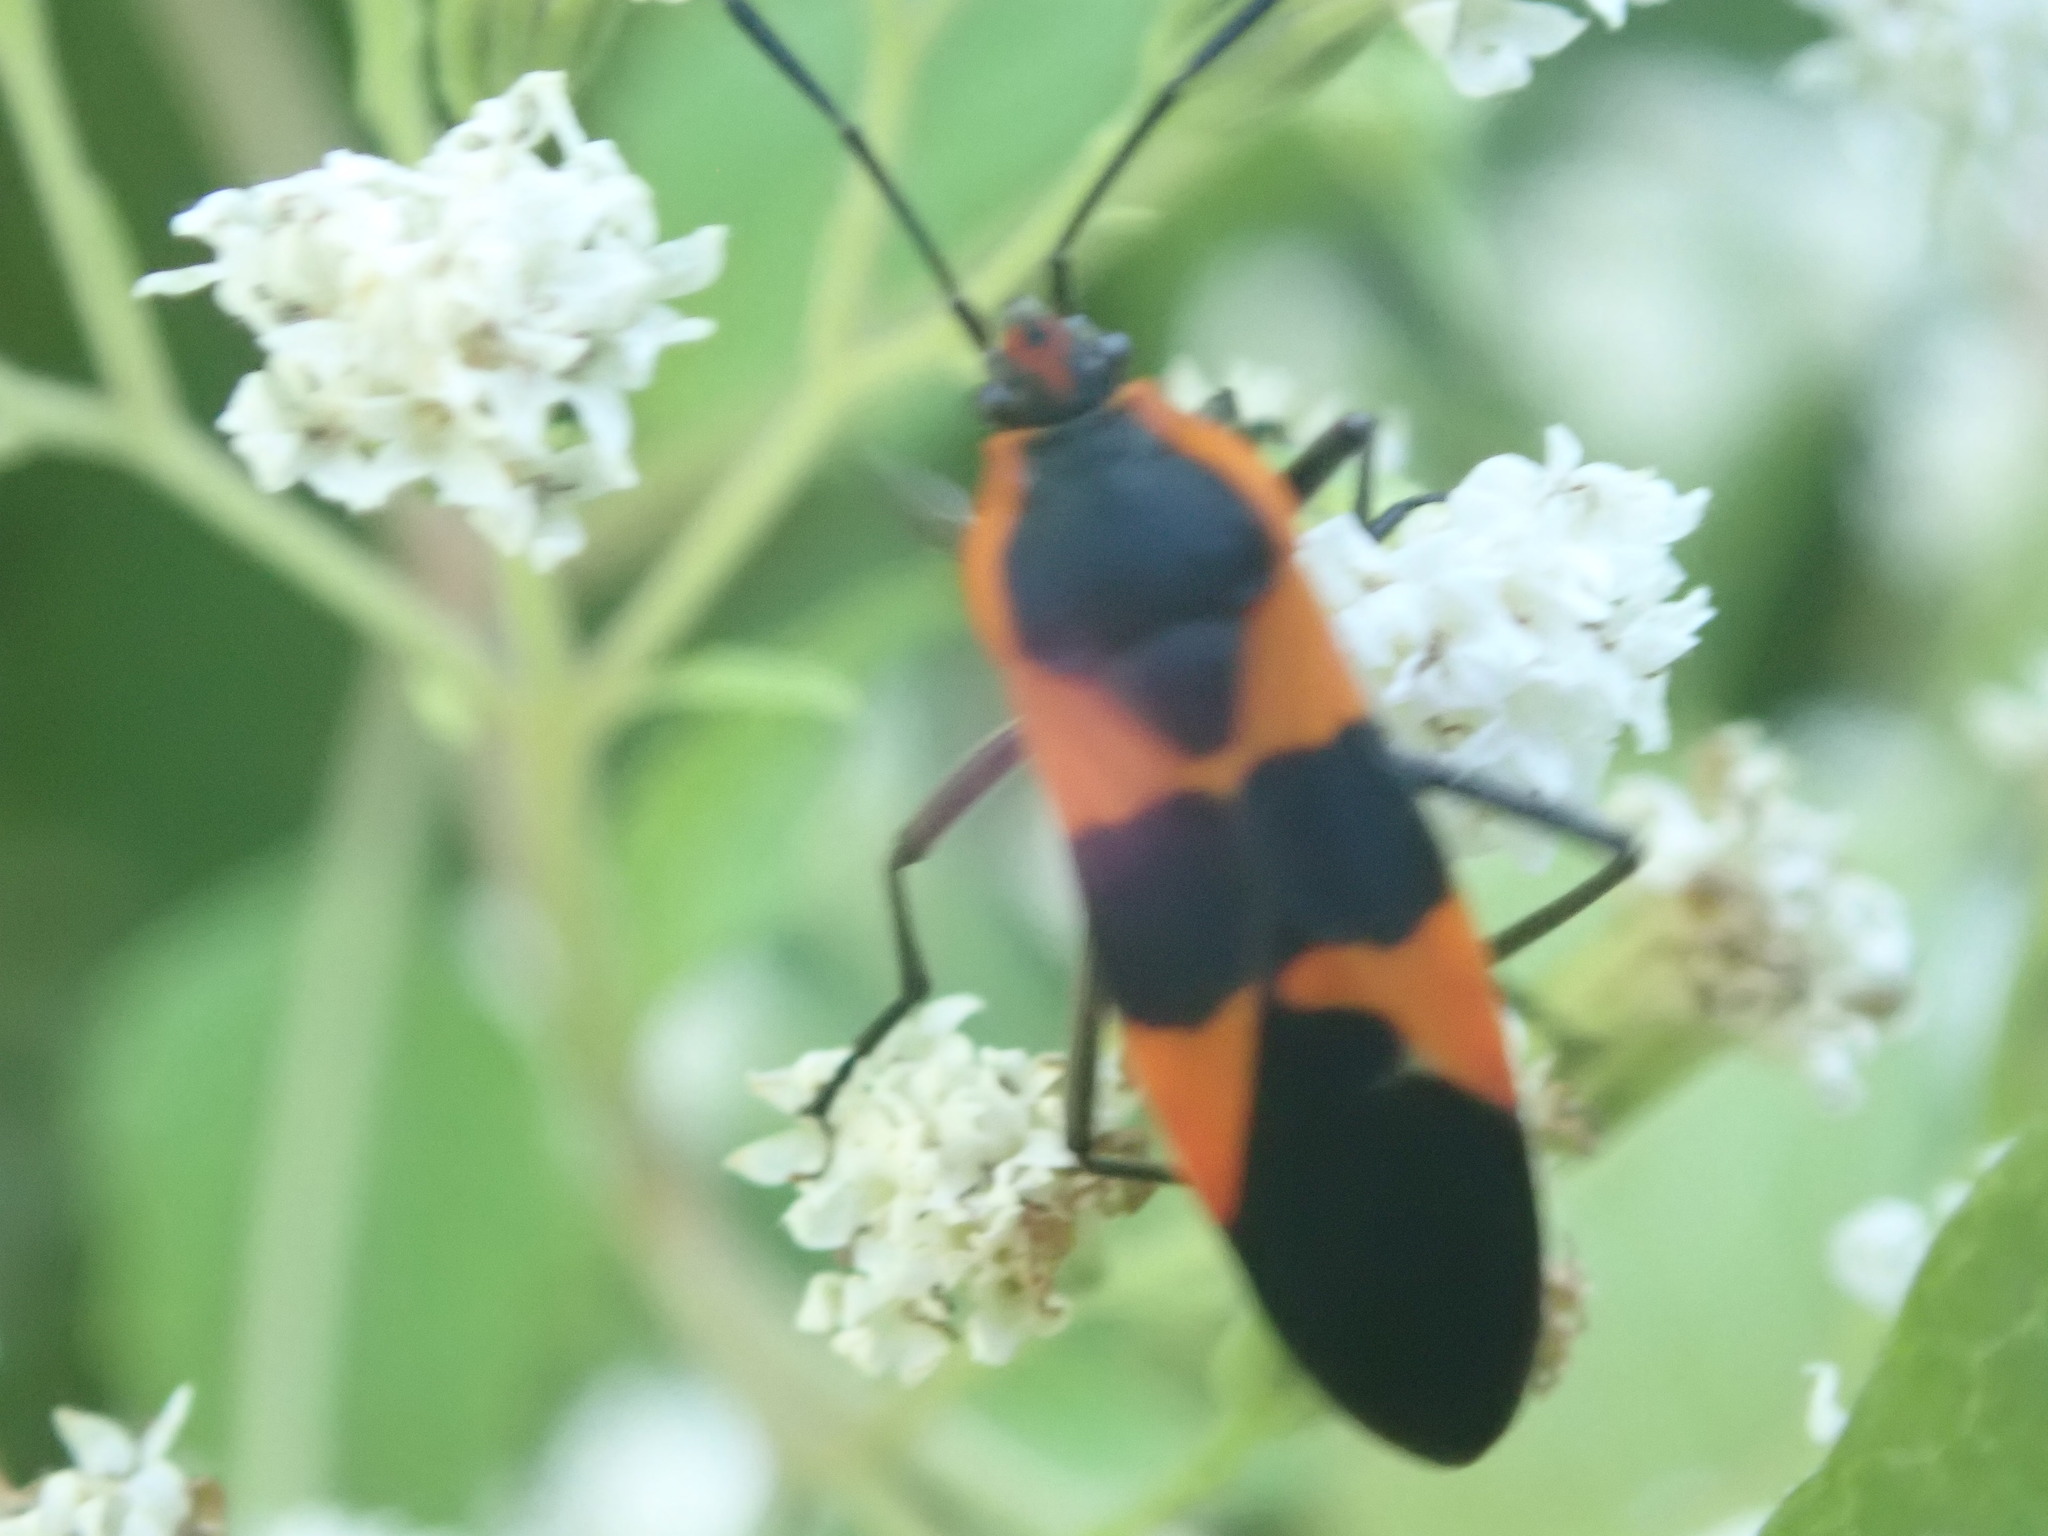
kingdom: Animalia
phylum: Arthropoda
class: Insecta
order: Hemiptera
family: Lygaeidae
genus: Oncopeltus
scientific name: Oncopeltus fasciatus
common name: Large milkweed bug
